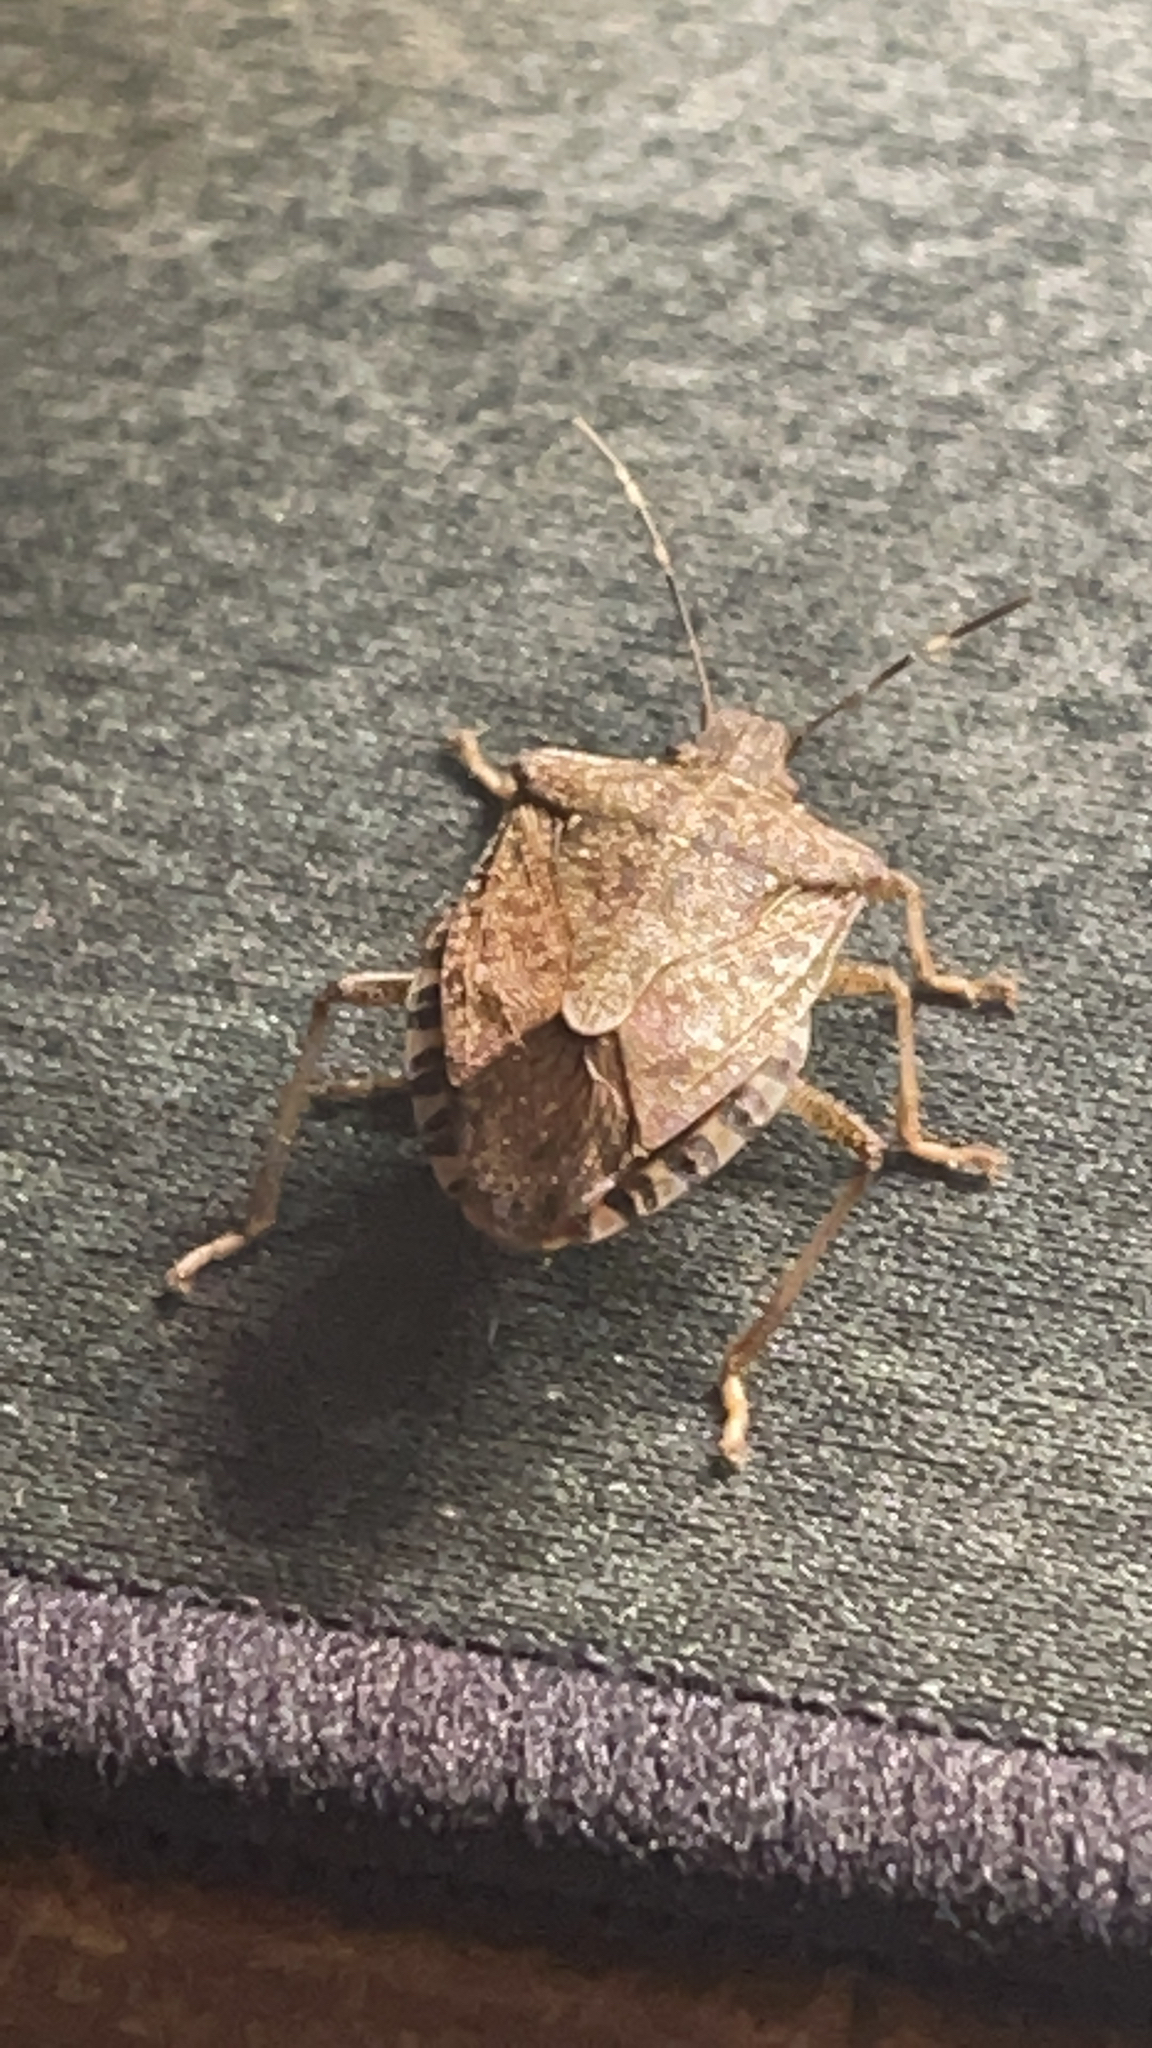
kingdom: Animalia
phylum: Arthropoda
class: Insecta
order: Hemiptera
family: Pentatomidae
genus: Halyomorpha
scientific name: Halyomorpha halys
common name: Brown marmorated stink bug
